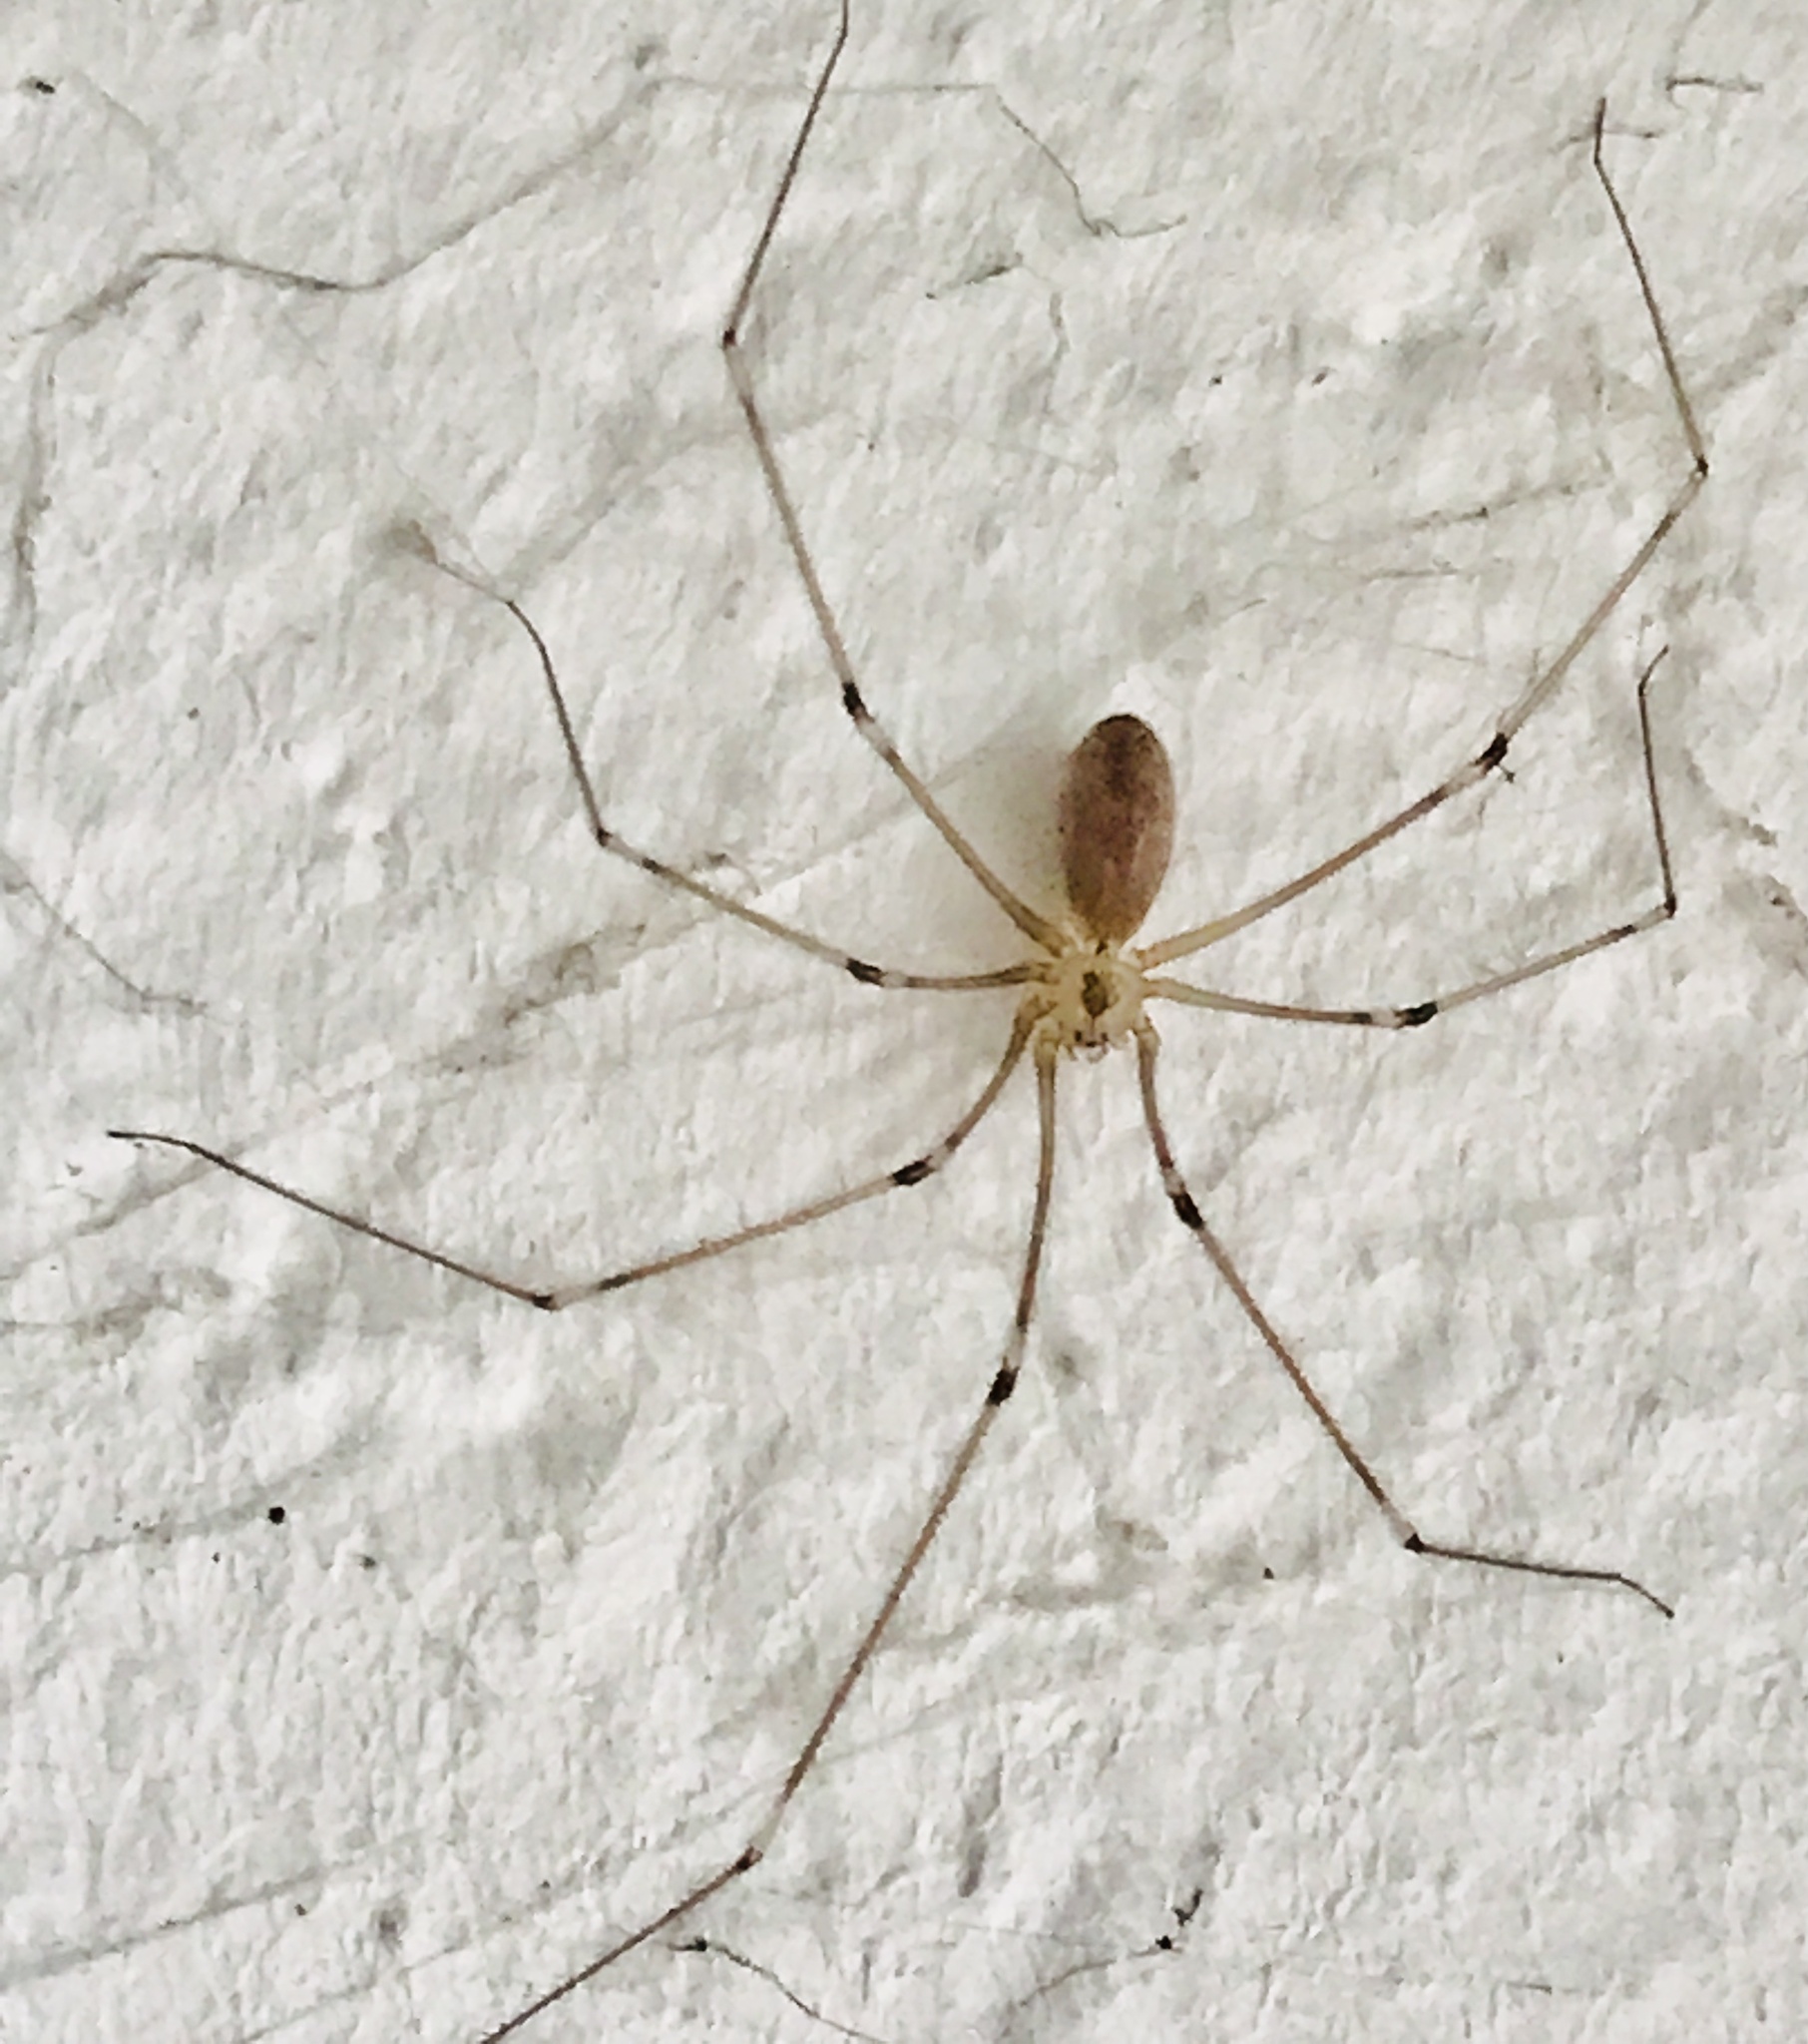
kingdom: Animalia
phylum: Arthropoda
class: Arachnida
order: Araneae
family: Pholcidae
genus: Pholcus
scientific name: Pholcus phalangioides
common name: Longbodied cellar spider
